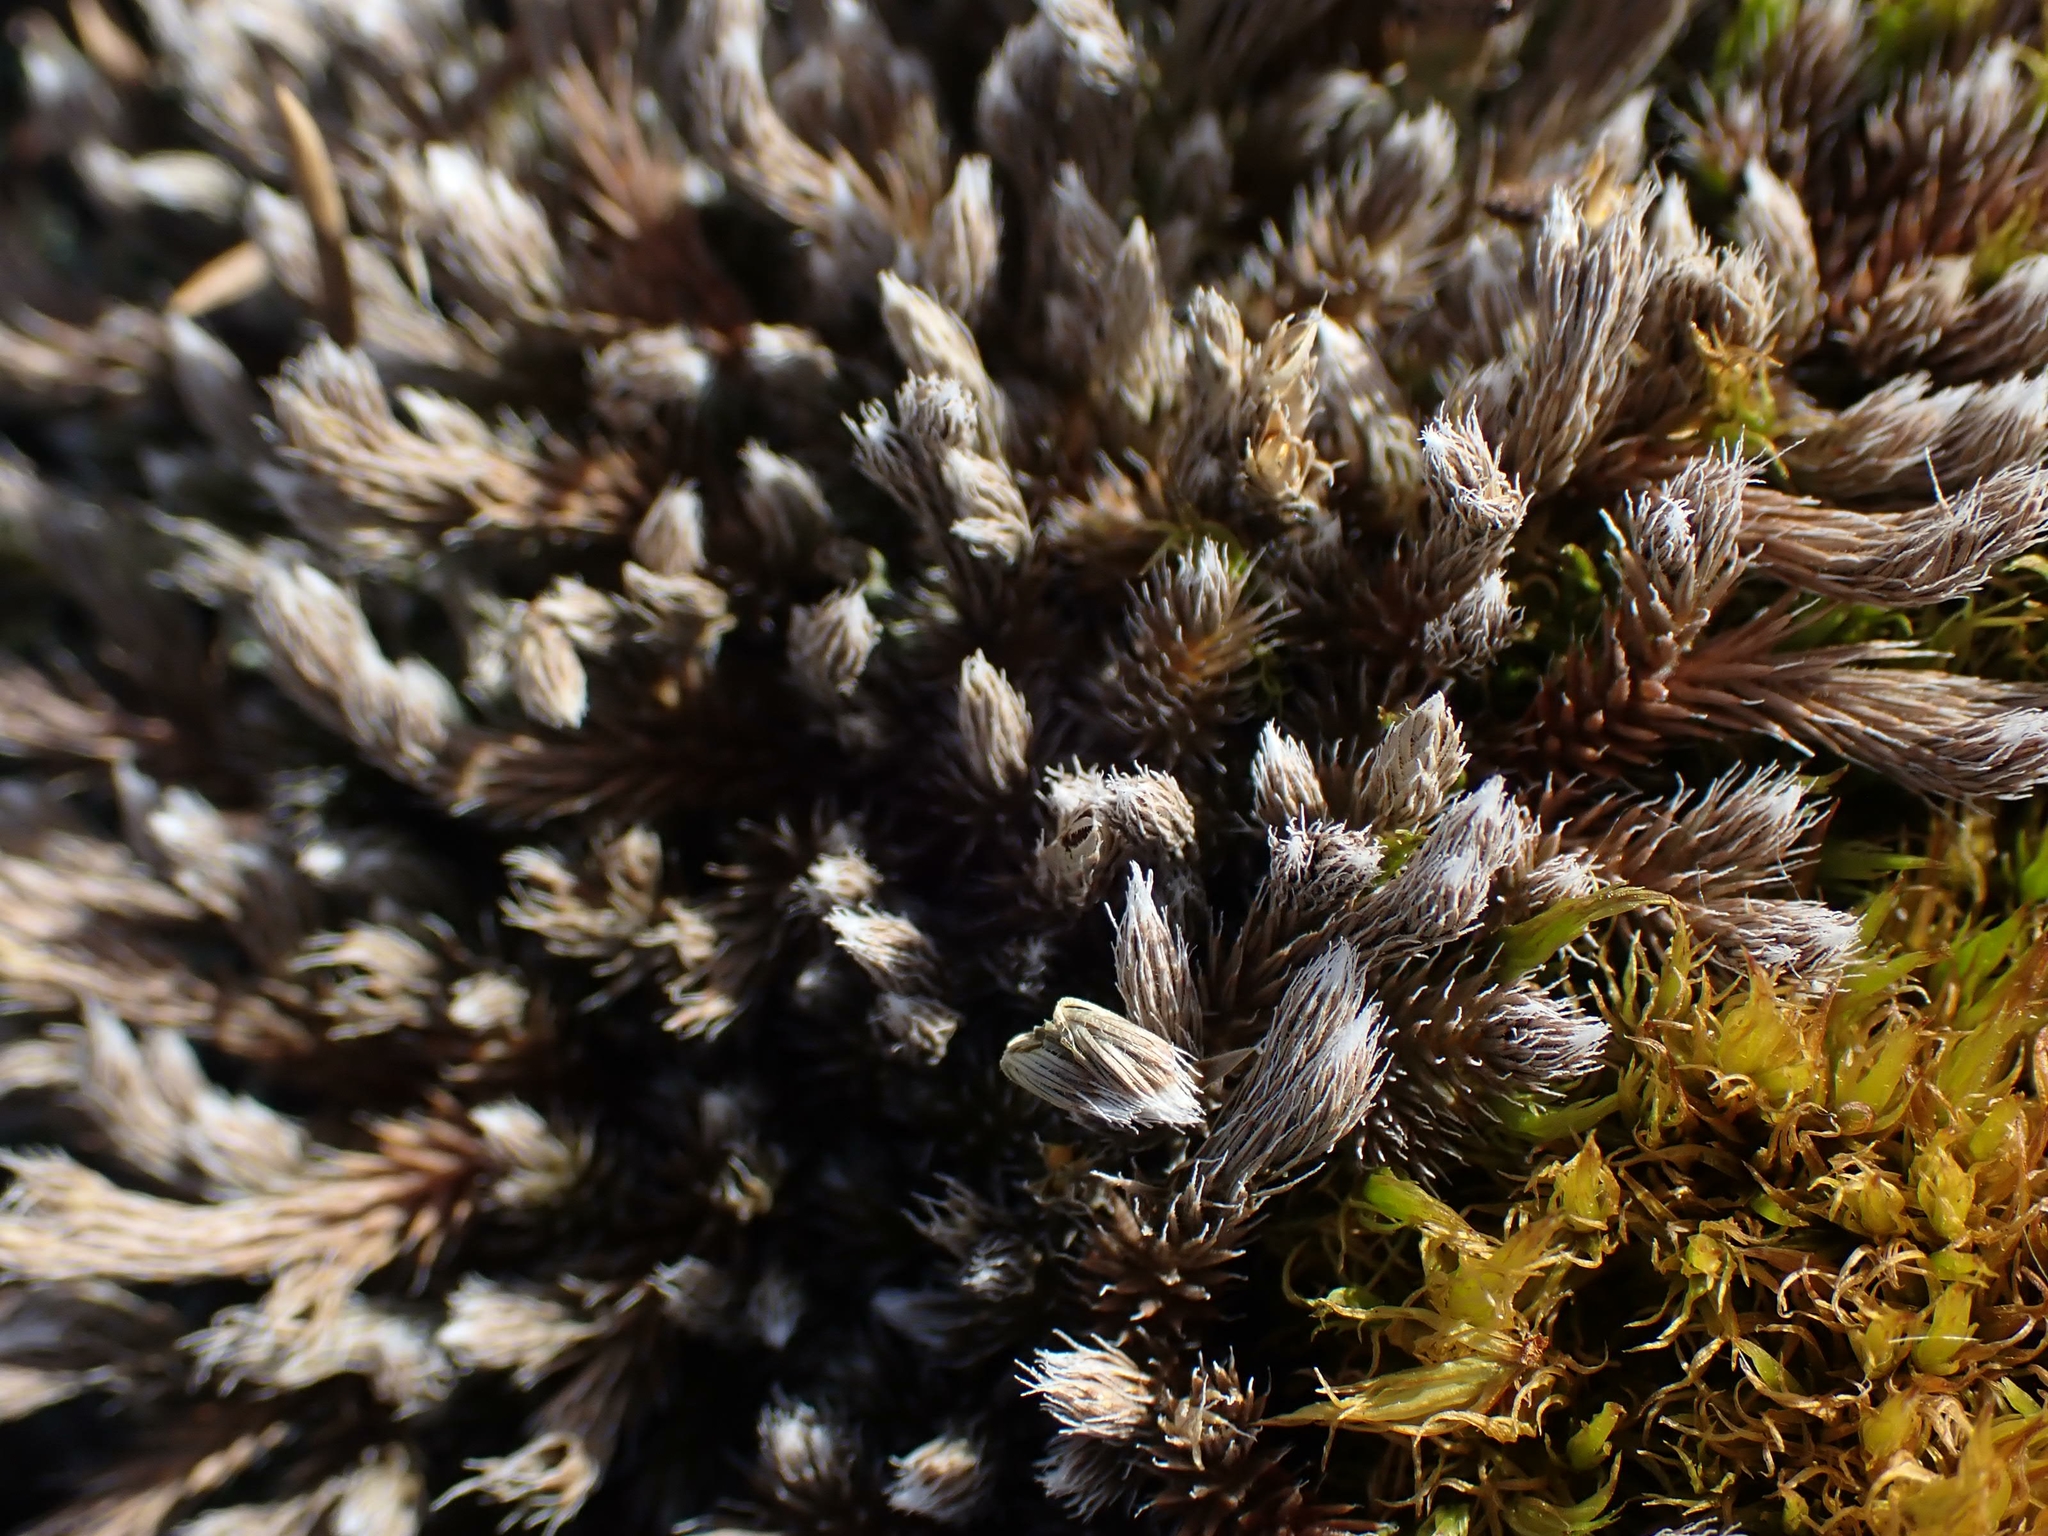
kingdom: Plantae
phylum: Tracheophyta
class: Lycopodiopsida
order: Selaginellales
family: Selaginellaceae
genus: Selaginella
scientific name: Selaginella rupestris
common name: Dwarf spikemoss
